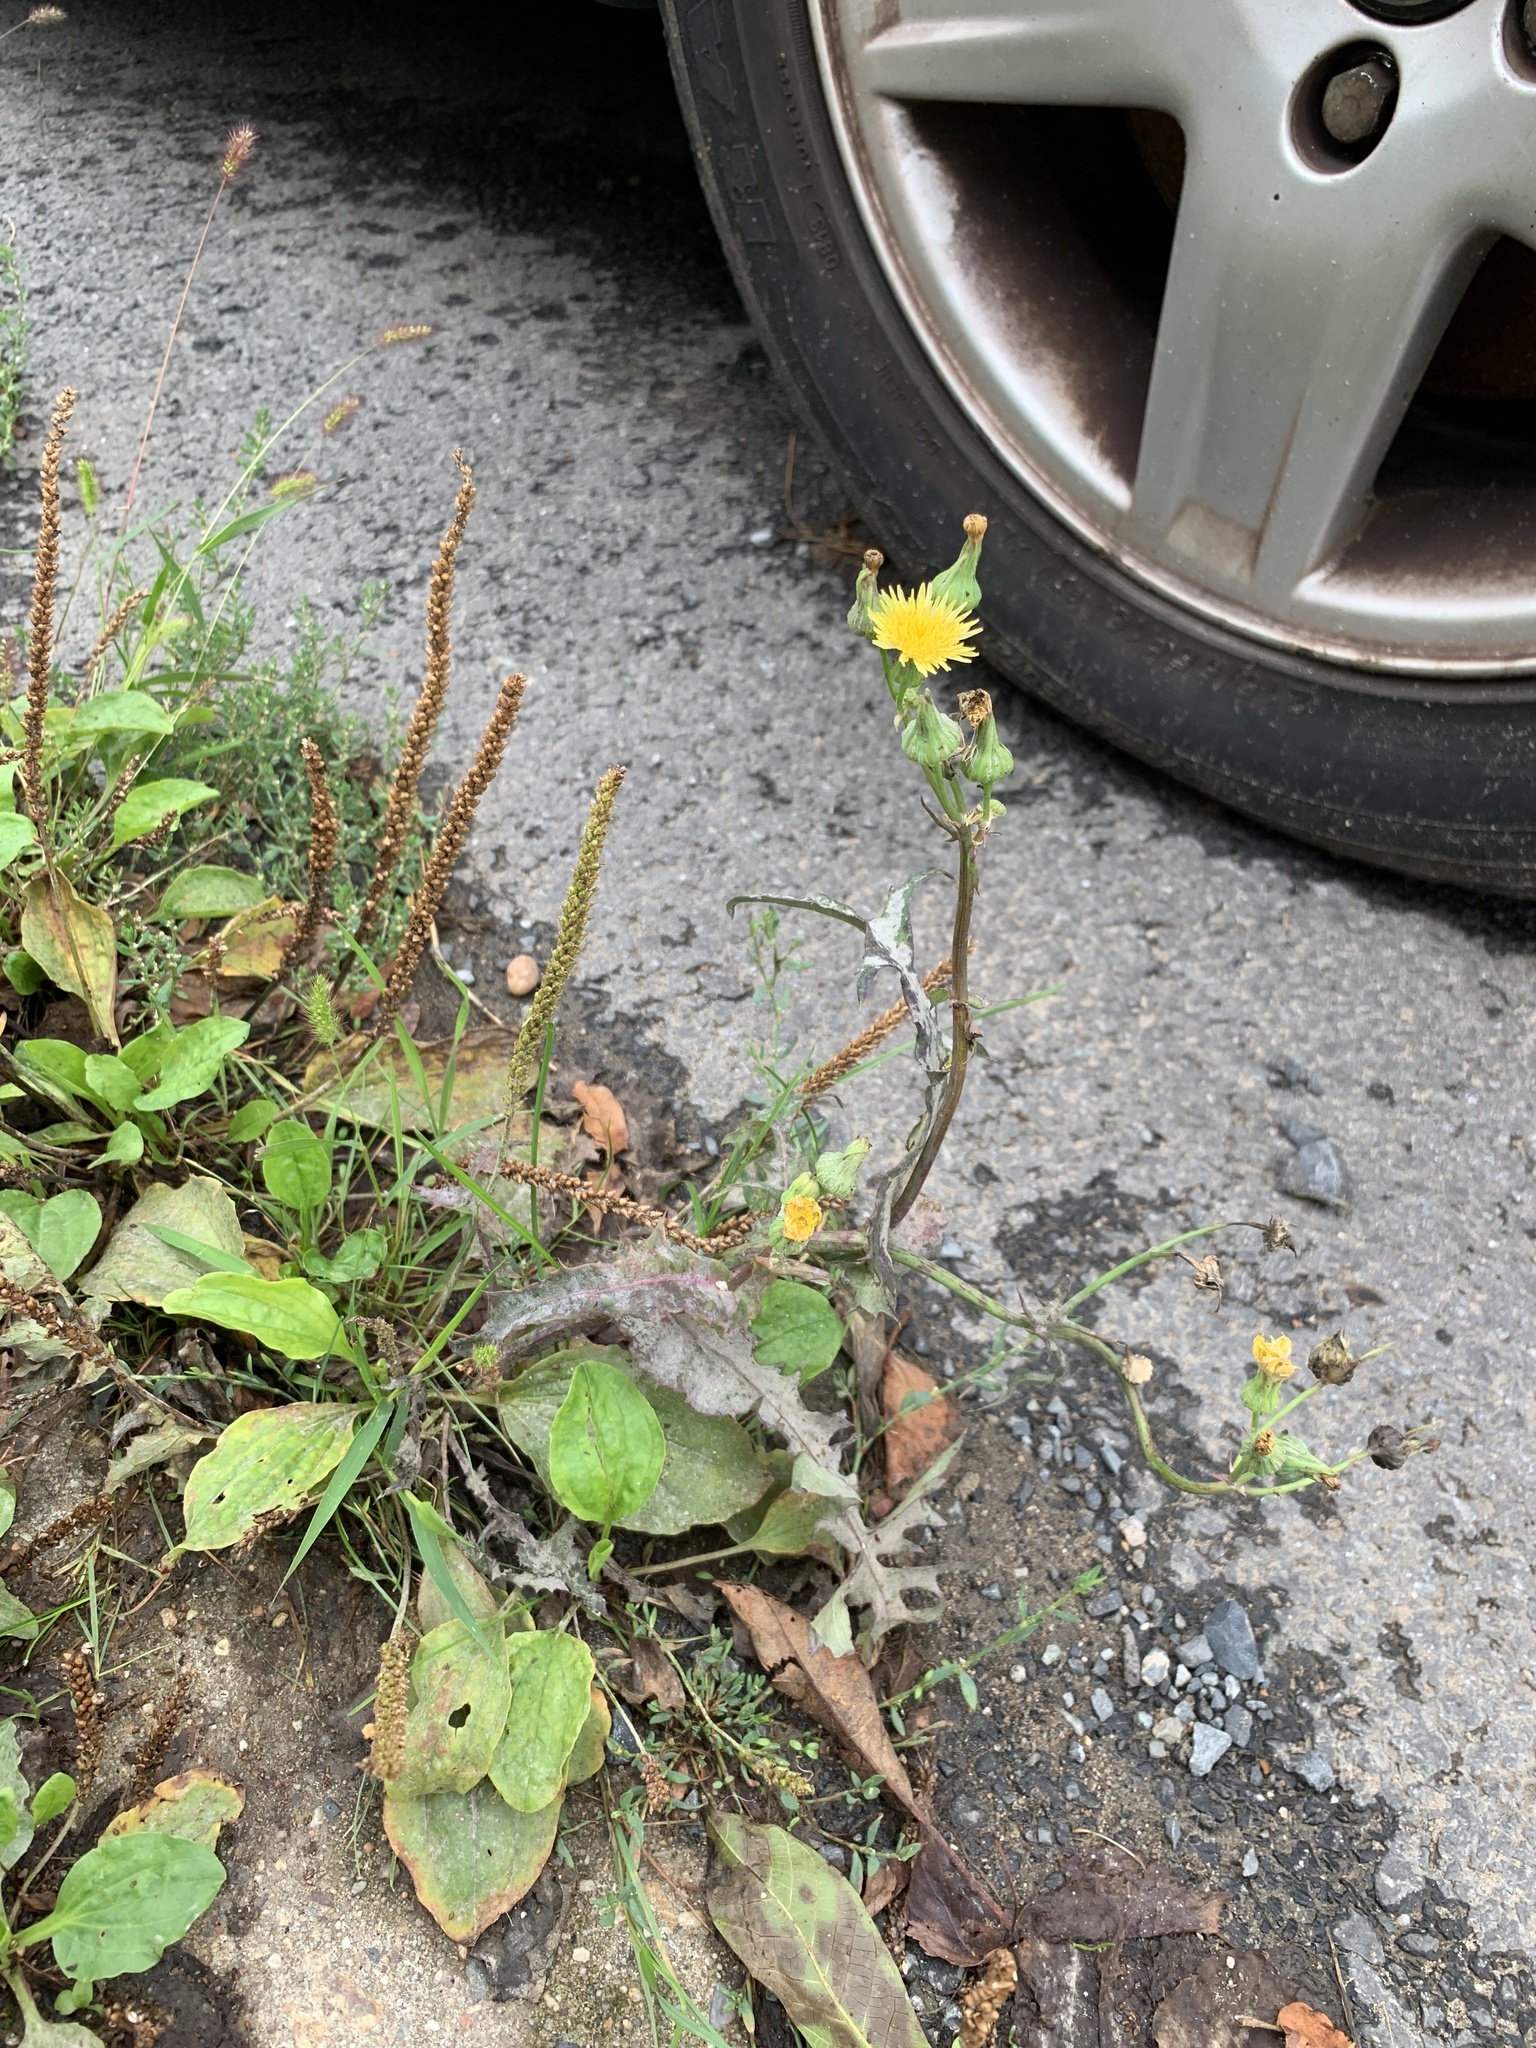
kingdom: Plantae
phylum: Tracheophyta
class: Magnoliopsida
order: Asterales
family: Asteraceae
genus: Sonchus
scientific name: Sonchus oleraceus
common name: Common sowthistle
